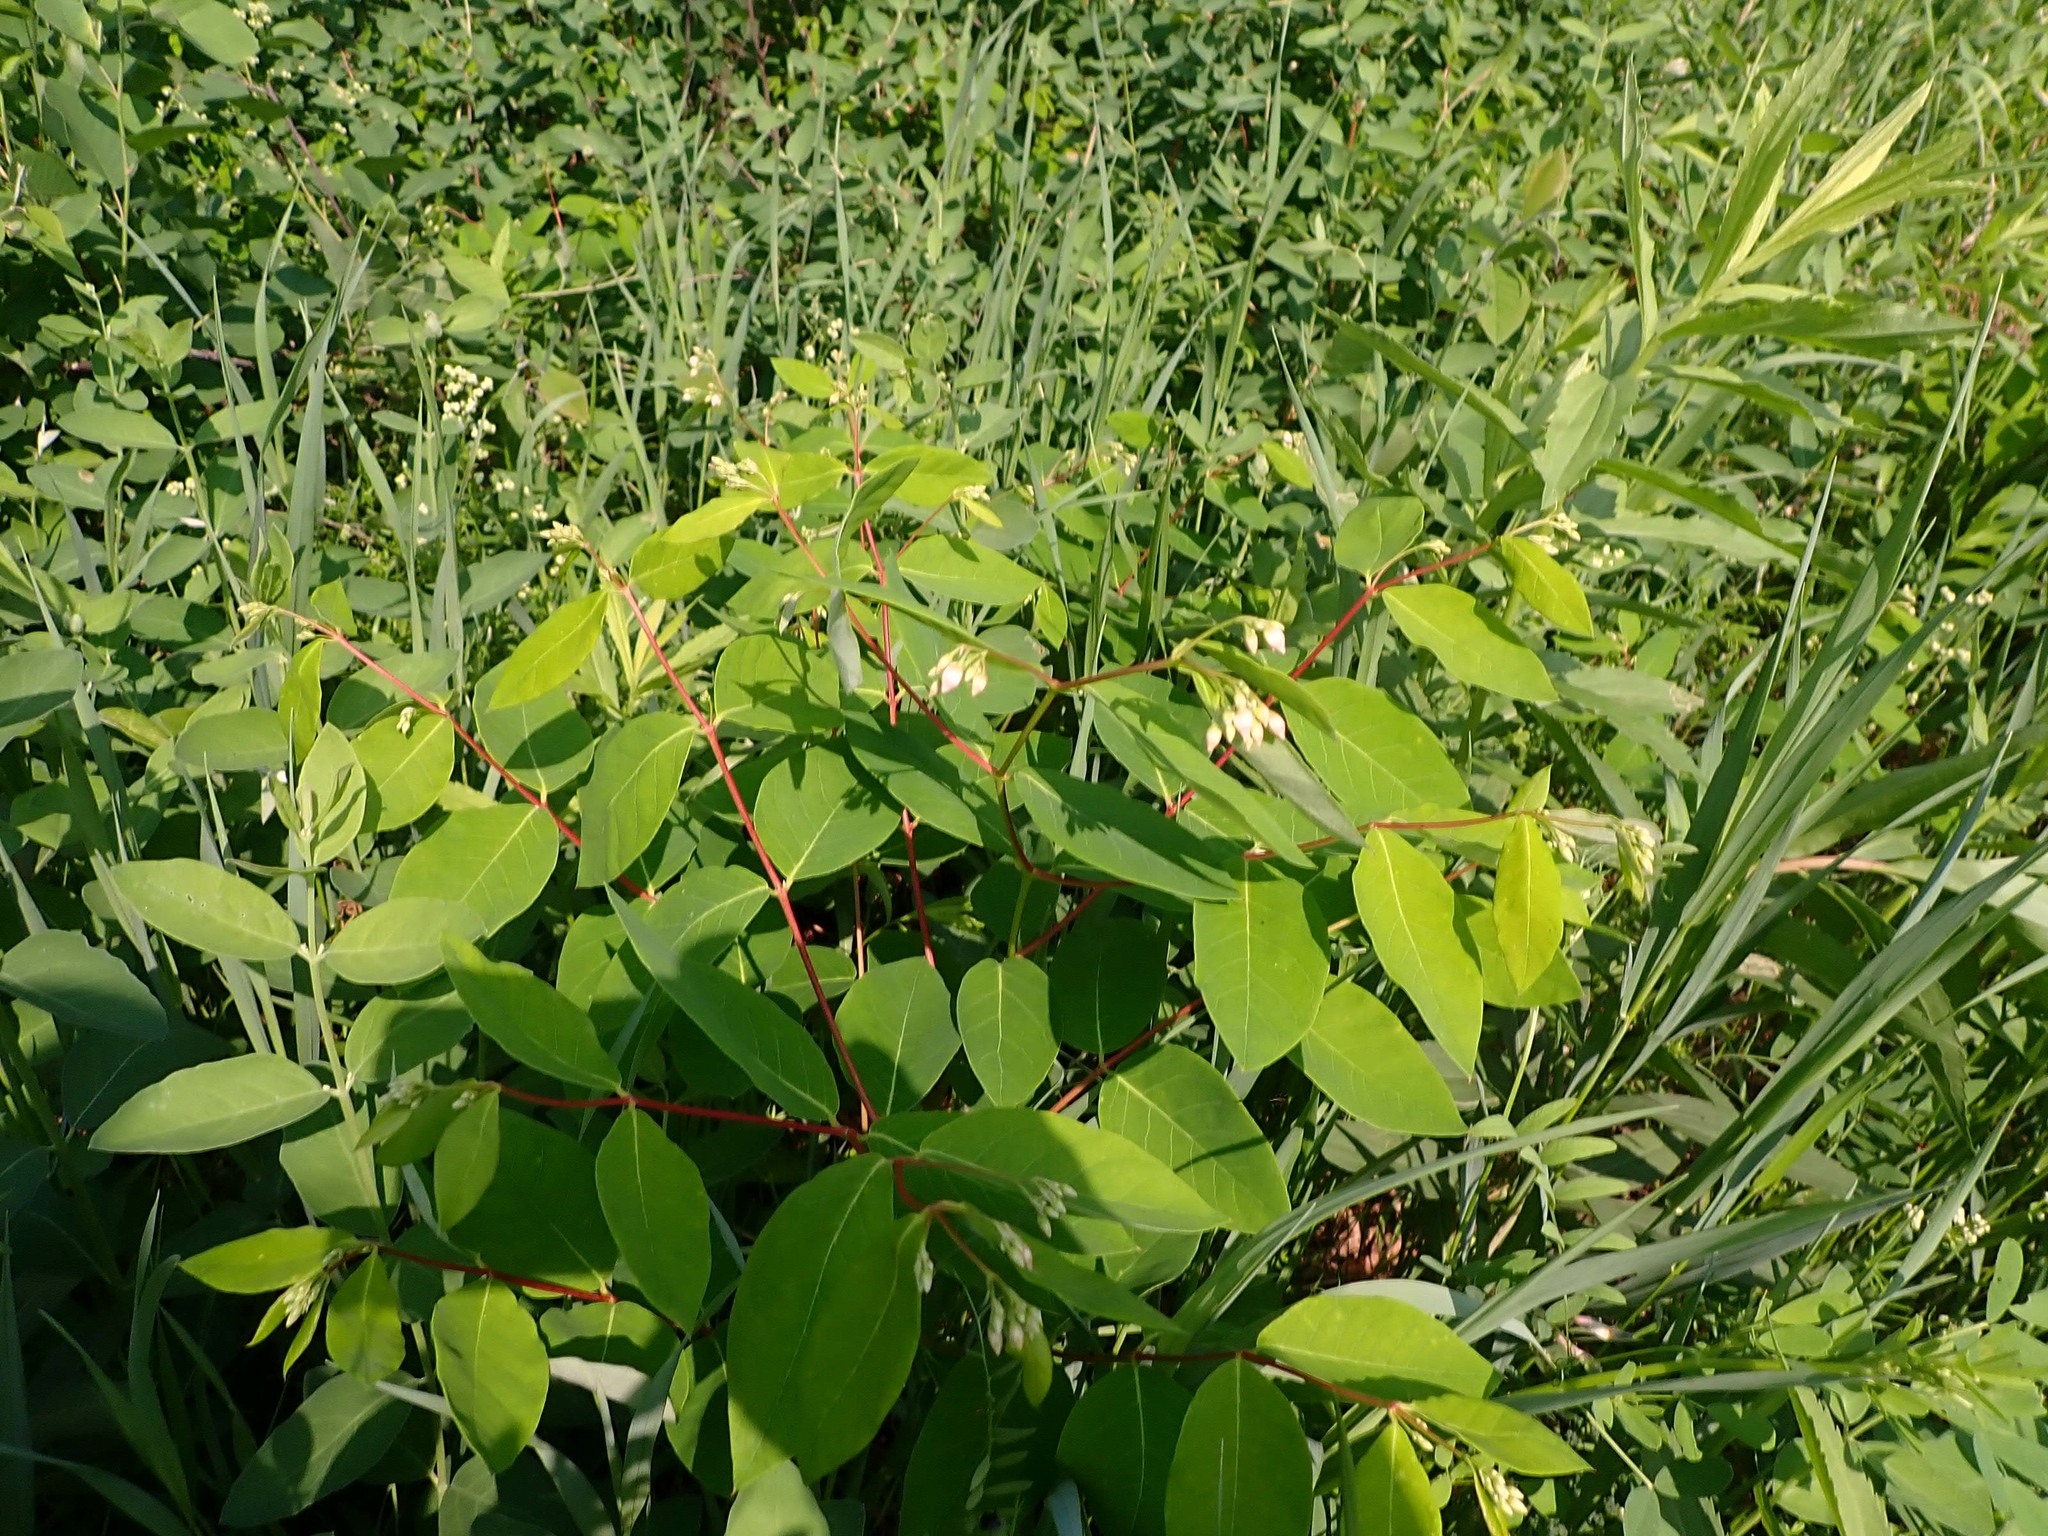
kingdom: Plantae
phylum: Tracheophyta
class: Magnoliopsida
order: Gentianales
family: Apocynaceae
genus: Apocynum
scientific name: Apocynum androsaemifolium
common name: Spreading dogbane
